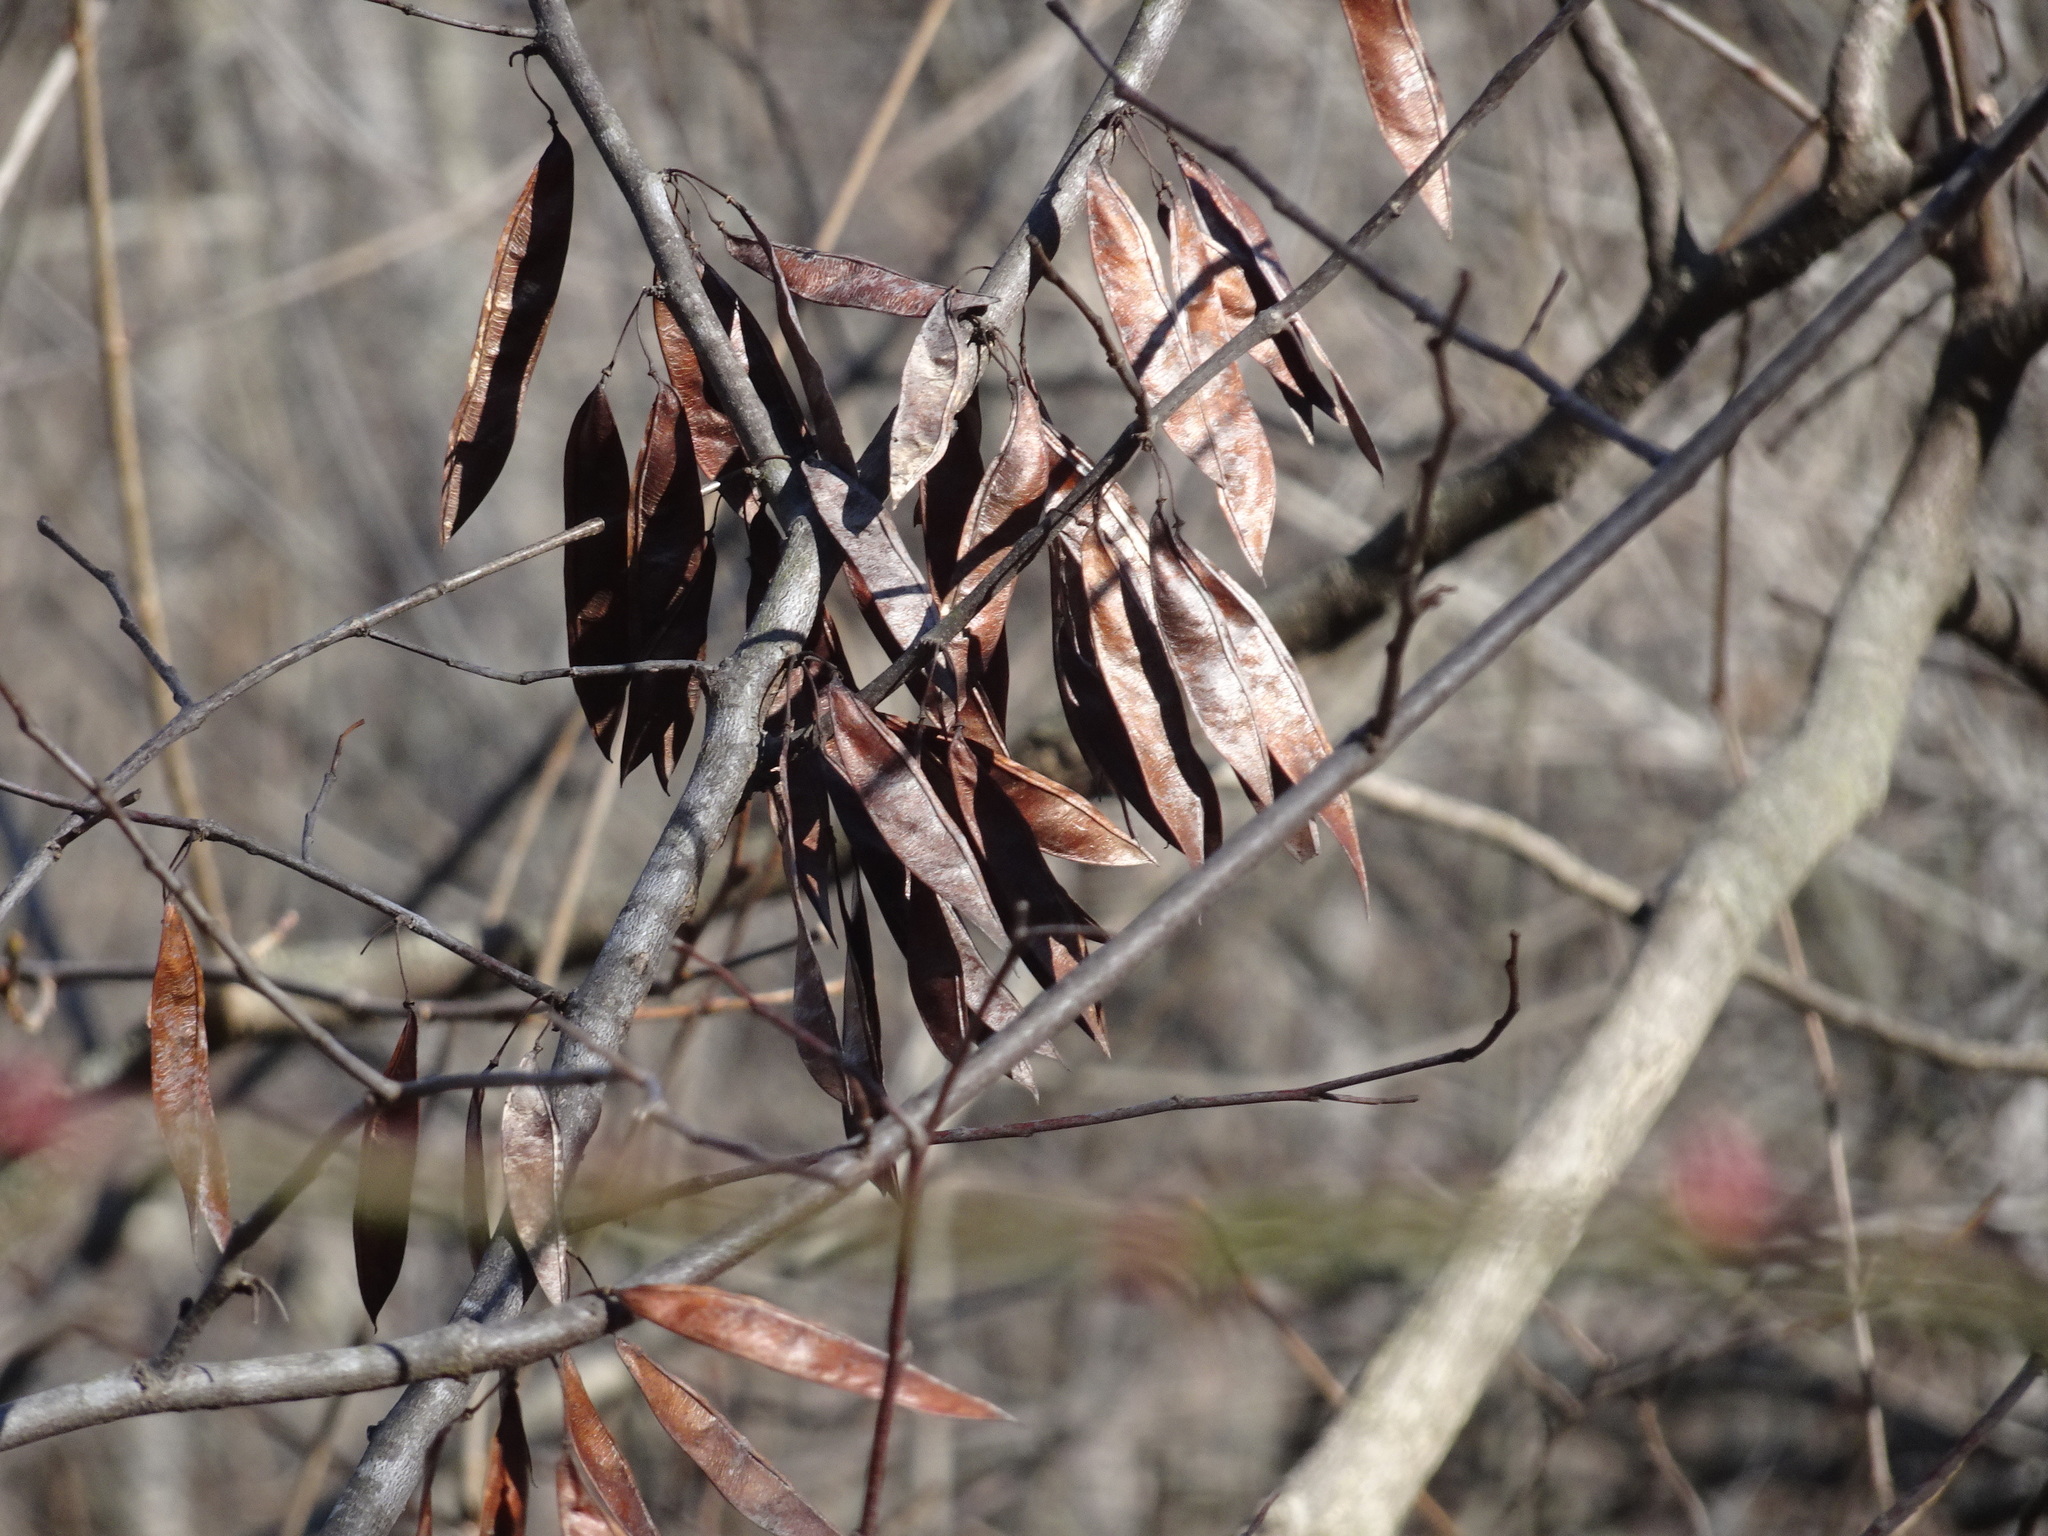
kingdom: Plantae
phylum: Tracheophyta
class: Magnoliopsida
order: Fabales
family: Fabaceae
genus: Cercis
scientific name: Cercis canadensis
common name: Eastern redbud
